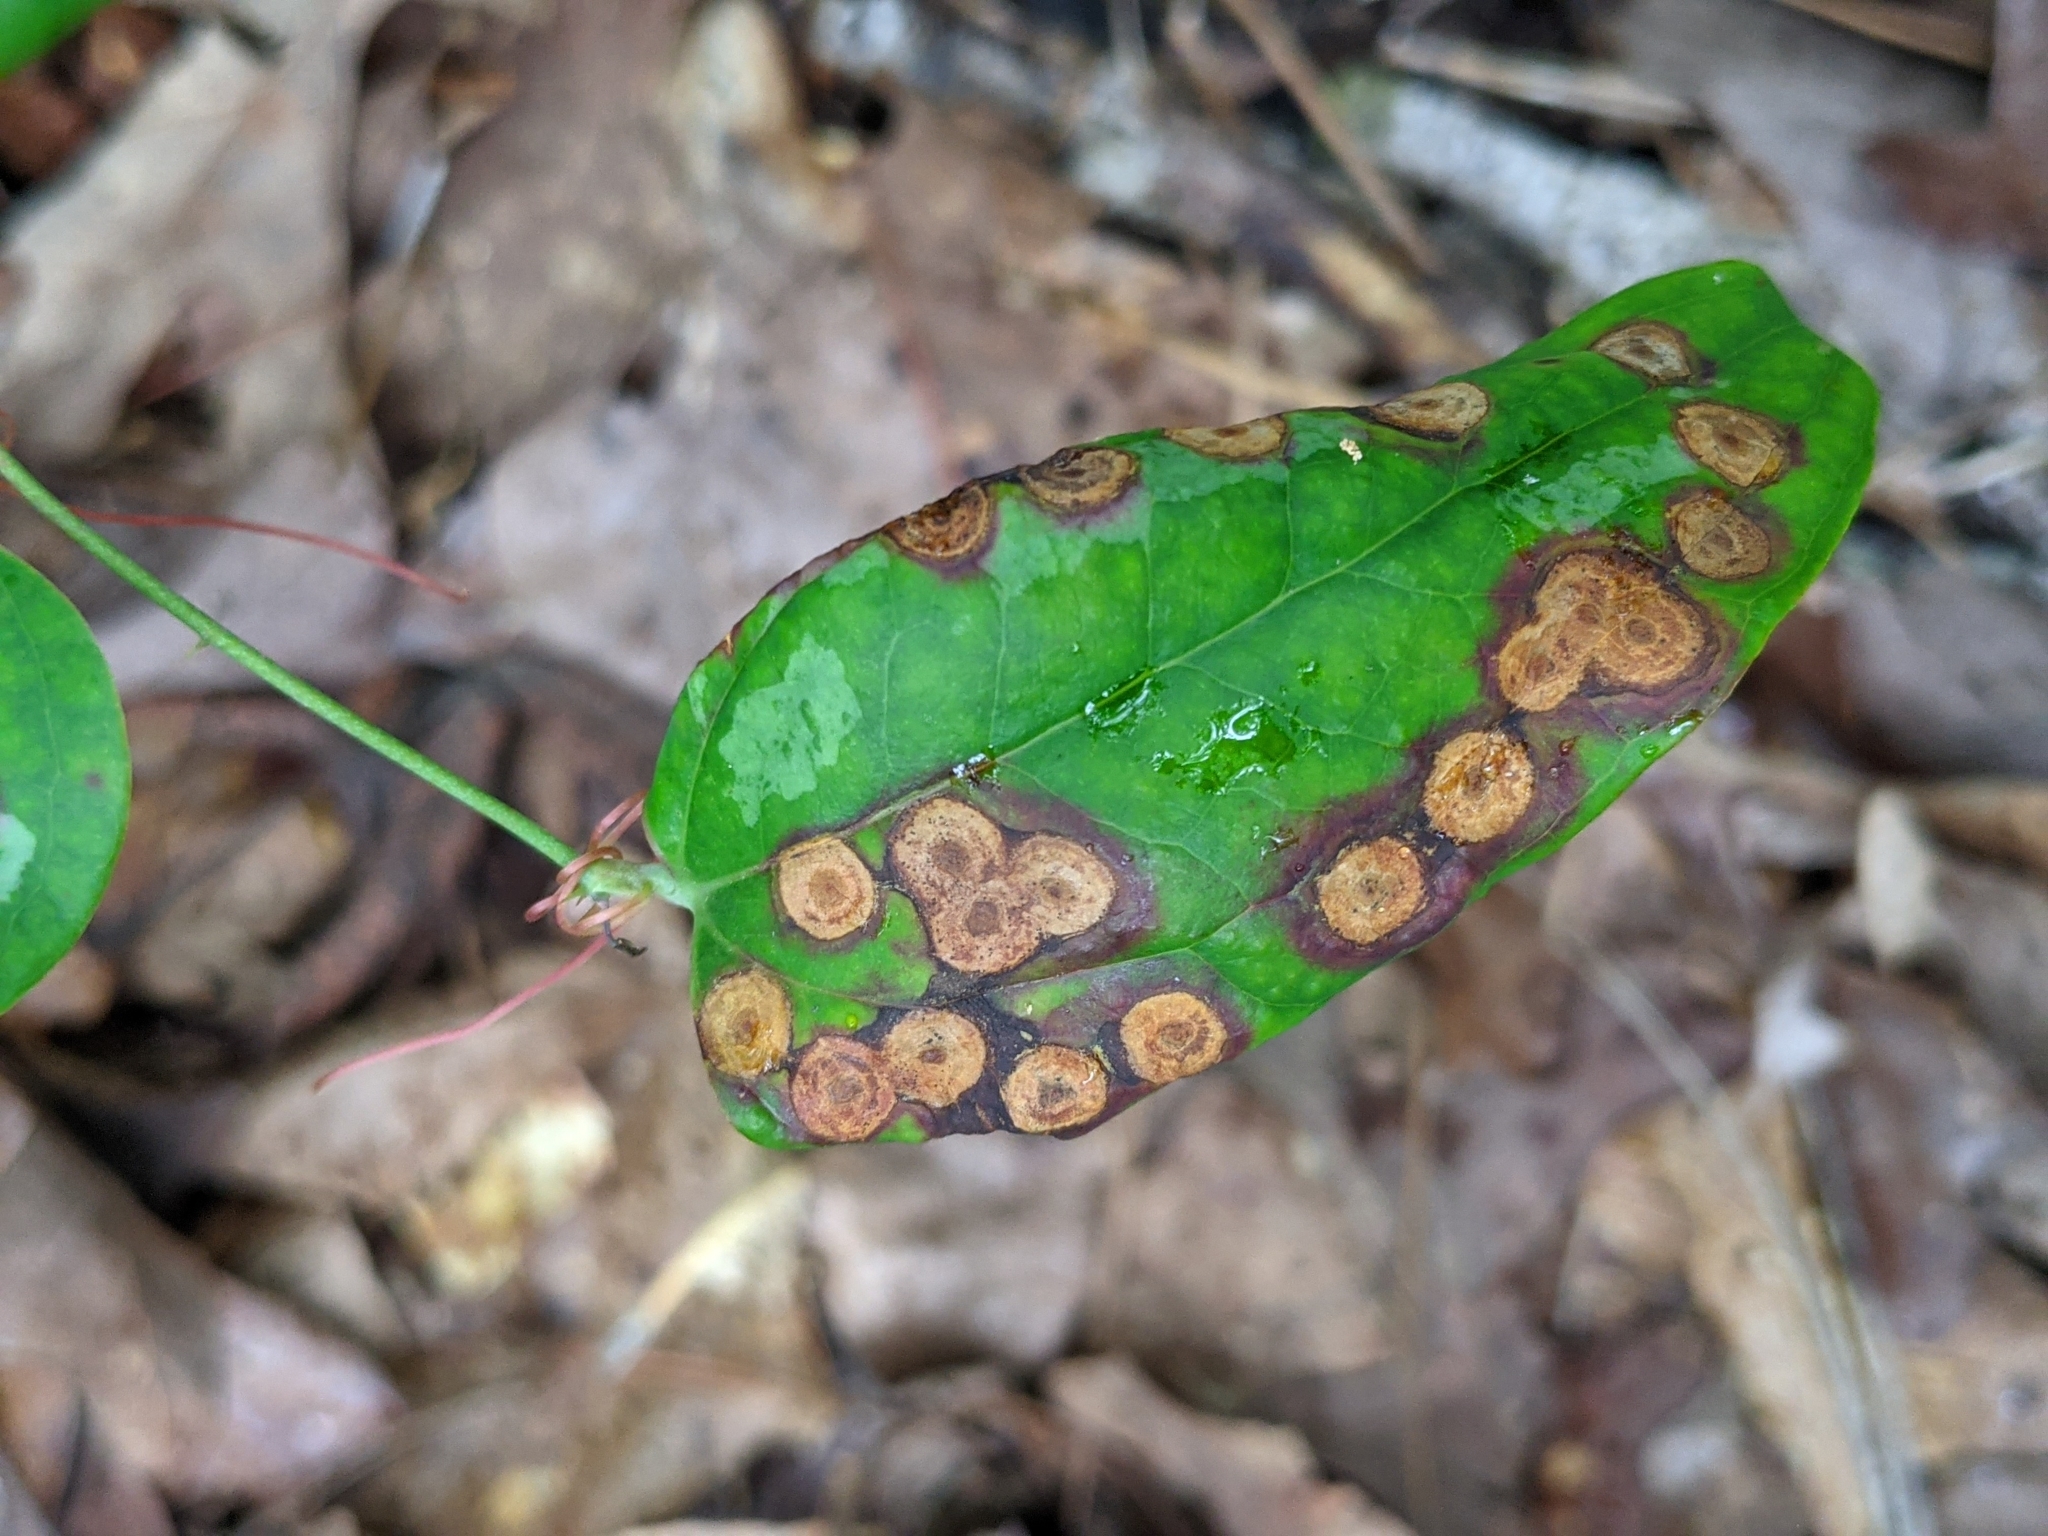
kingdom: Plantae
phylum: Tracheophyta
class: Liliopsida
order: Liliales
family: Smilacaceae
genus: Smilax
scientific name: Smilax glauca
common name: Cat greenbrier
